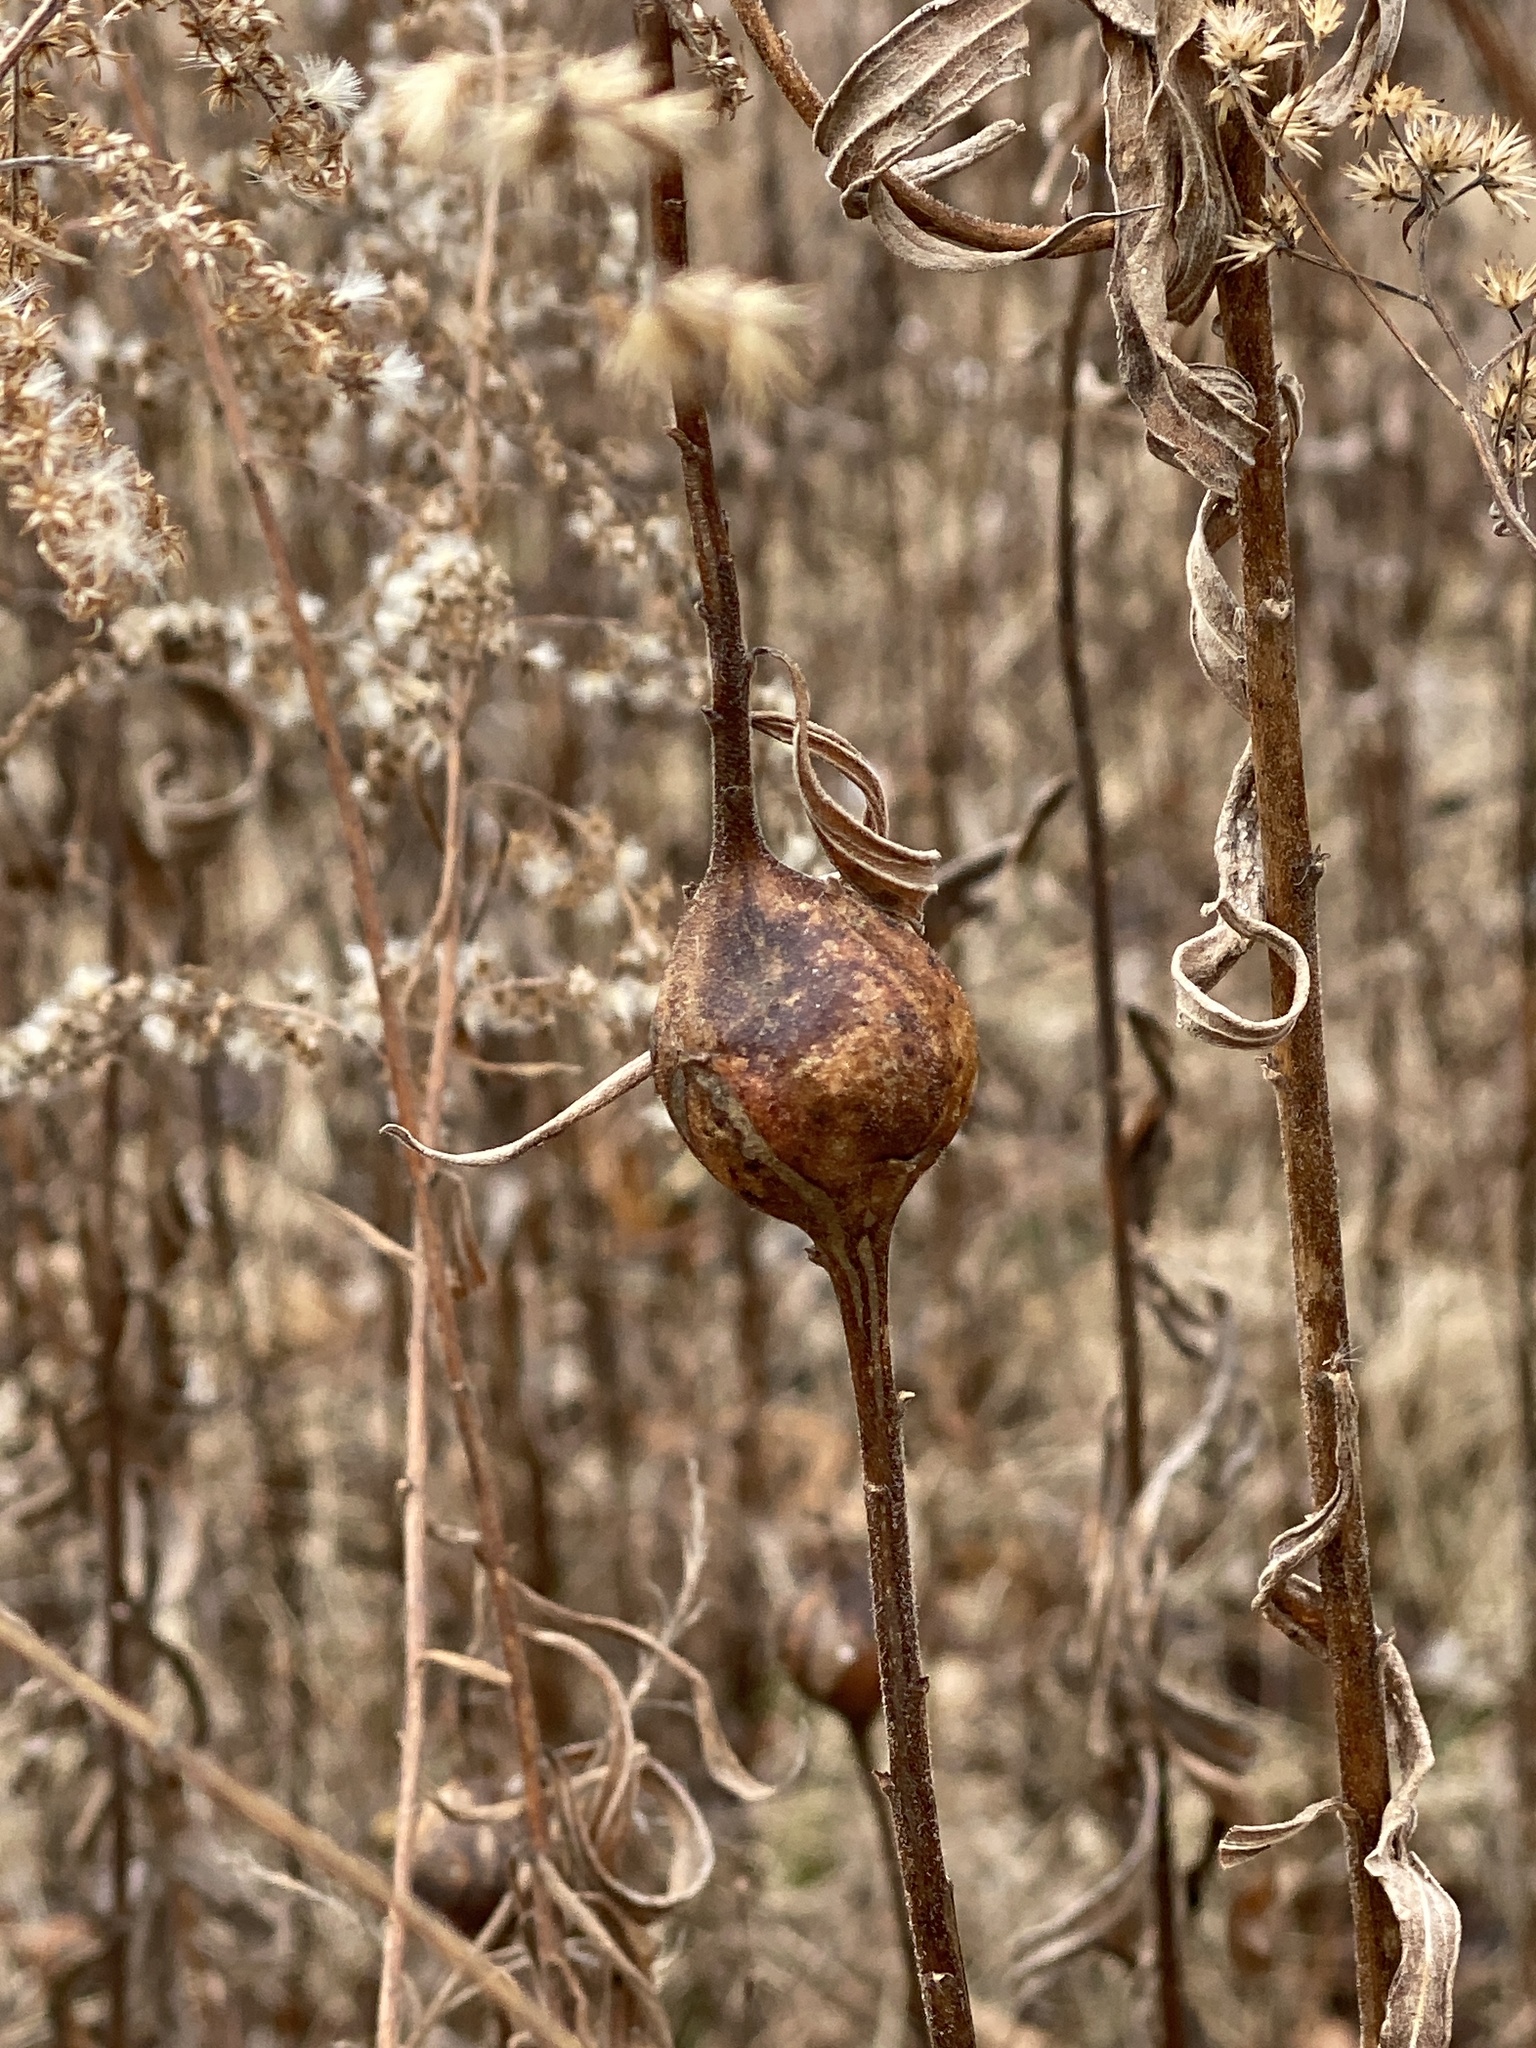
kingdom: Animalia
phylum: Arthropoda
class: Insecta
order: Diptera
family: Tephritidae
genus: Eurosta
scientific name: Eurosta solidaginis
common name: Goldenrod gall fly
